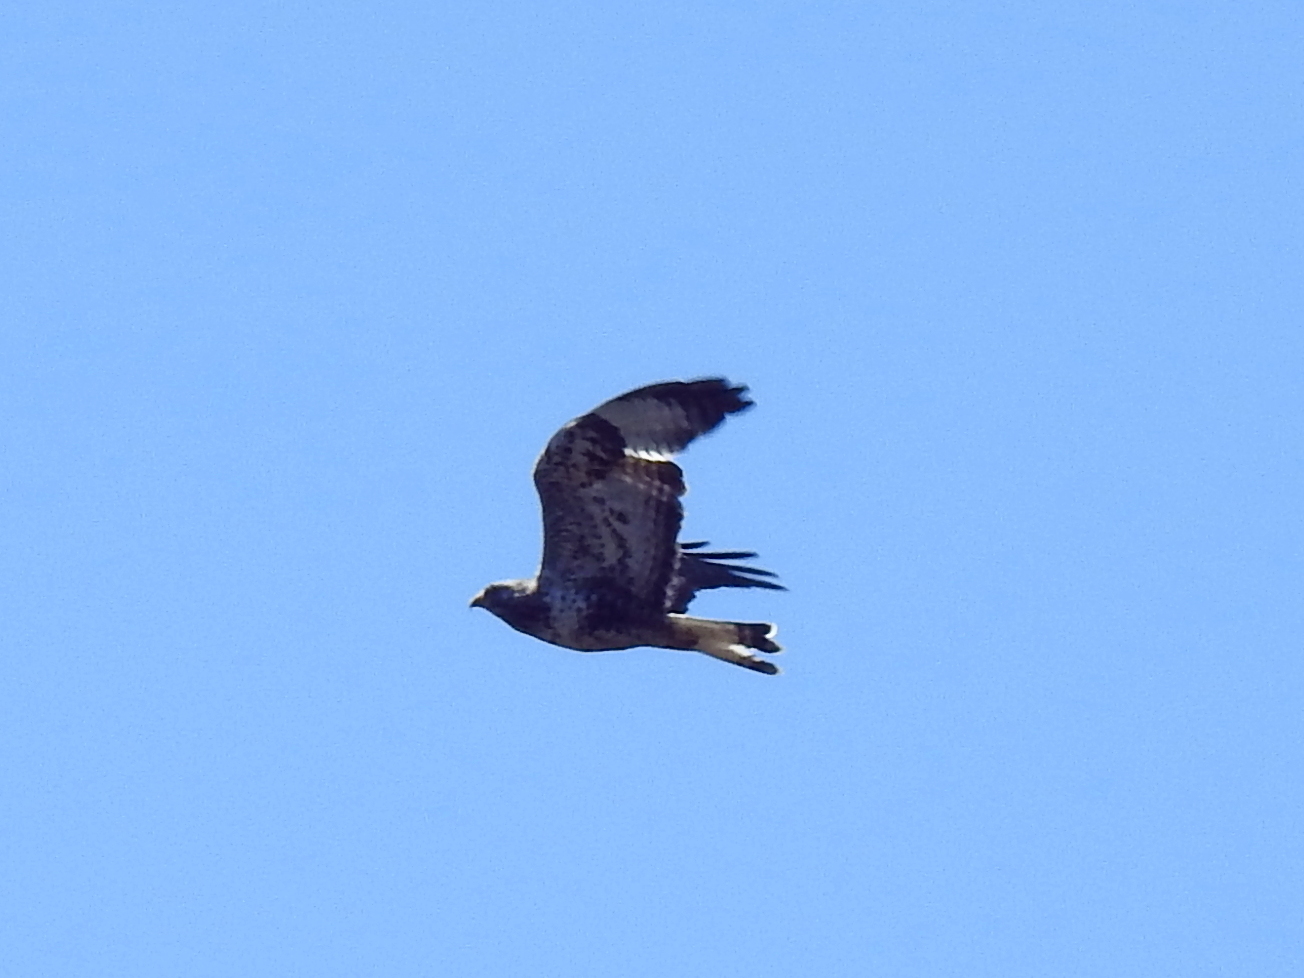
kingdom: Animalia
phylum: Chordata
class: Aves
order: Accipitriformes
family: Accipitridae
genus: Buteo
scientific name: Buteo lagopus
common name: Rough-legged buzzard
